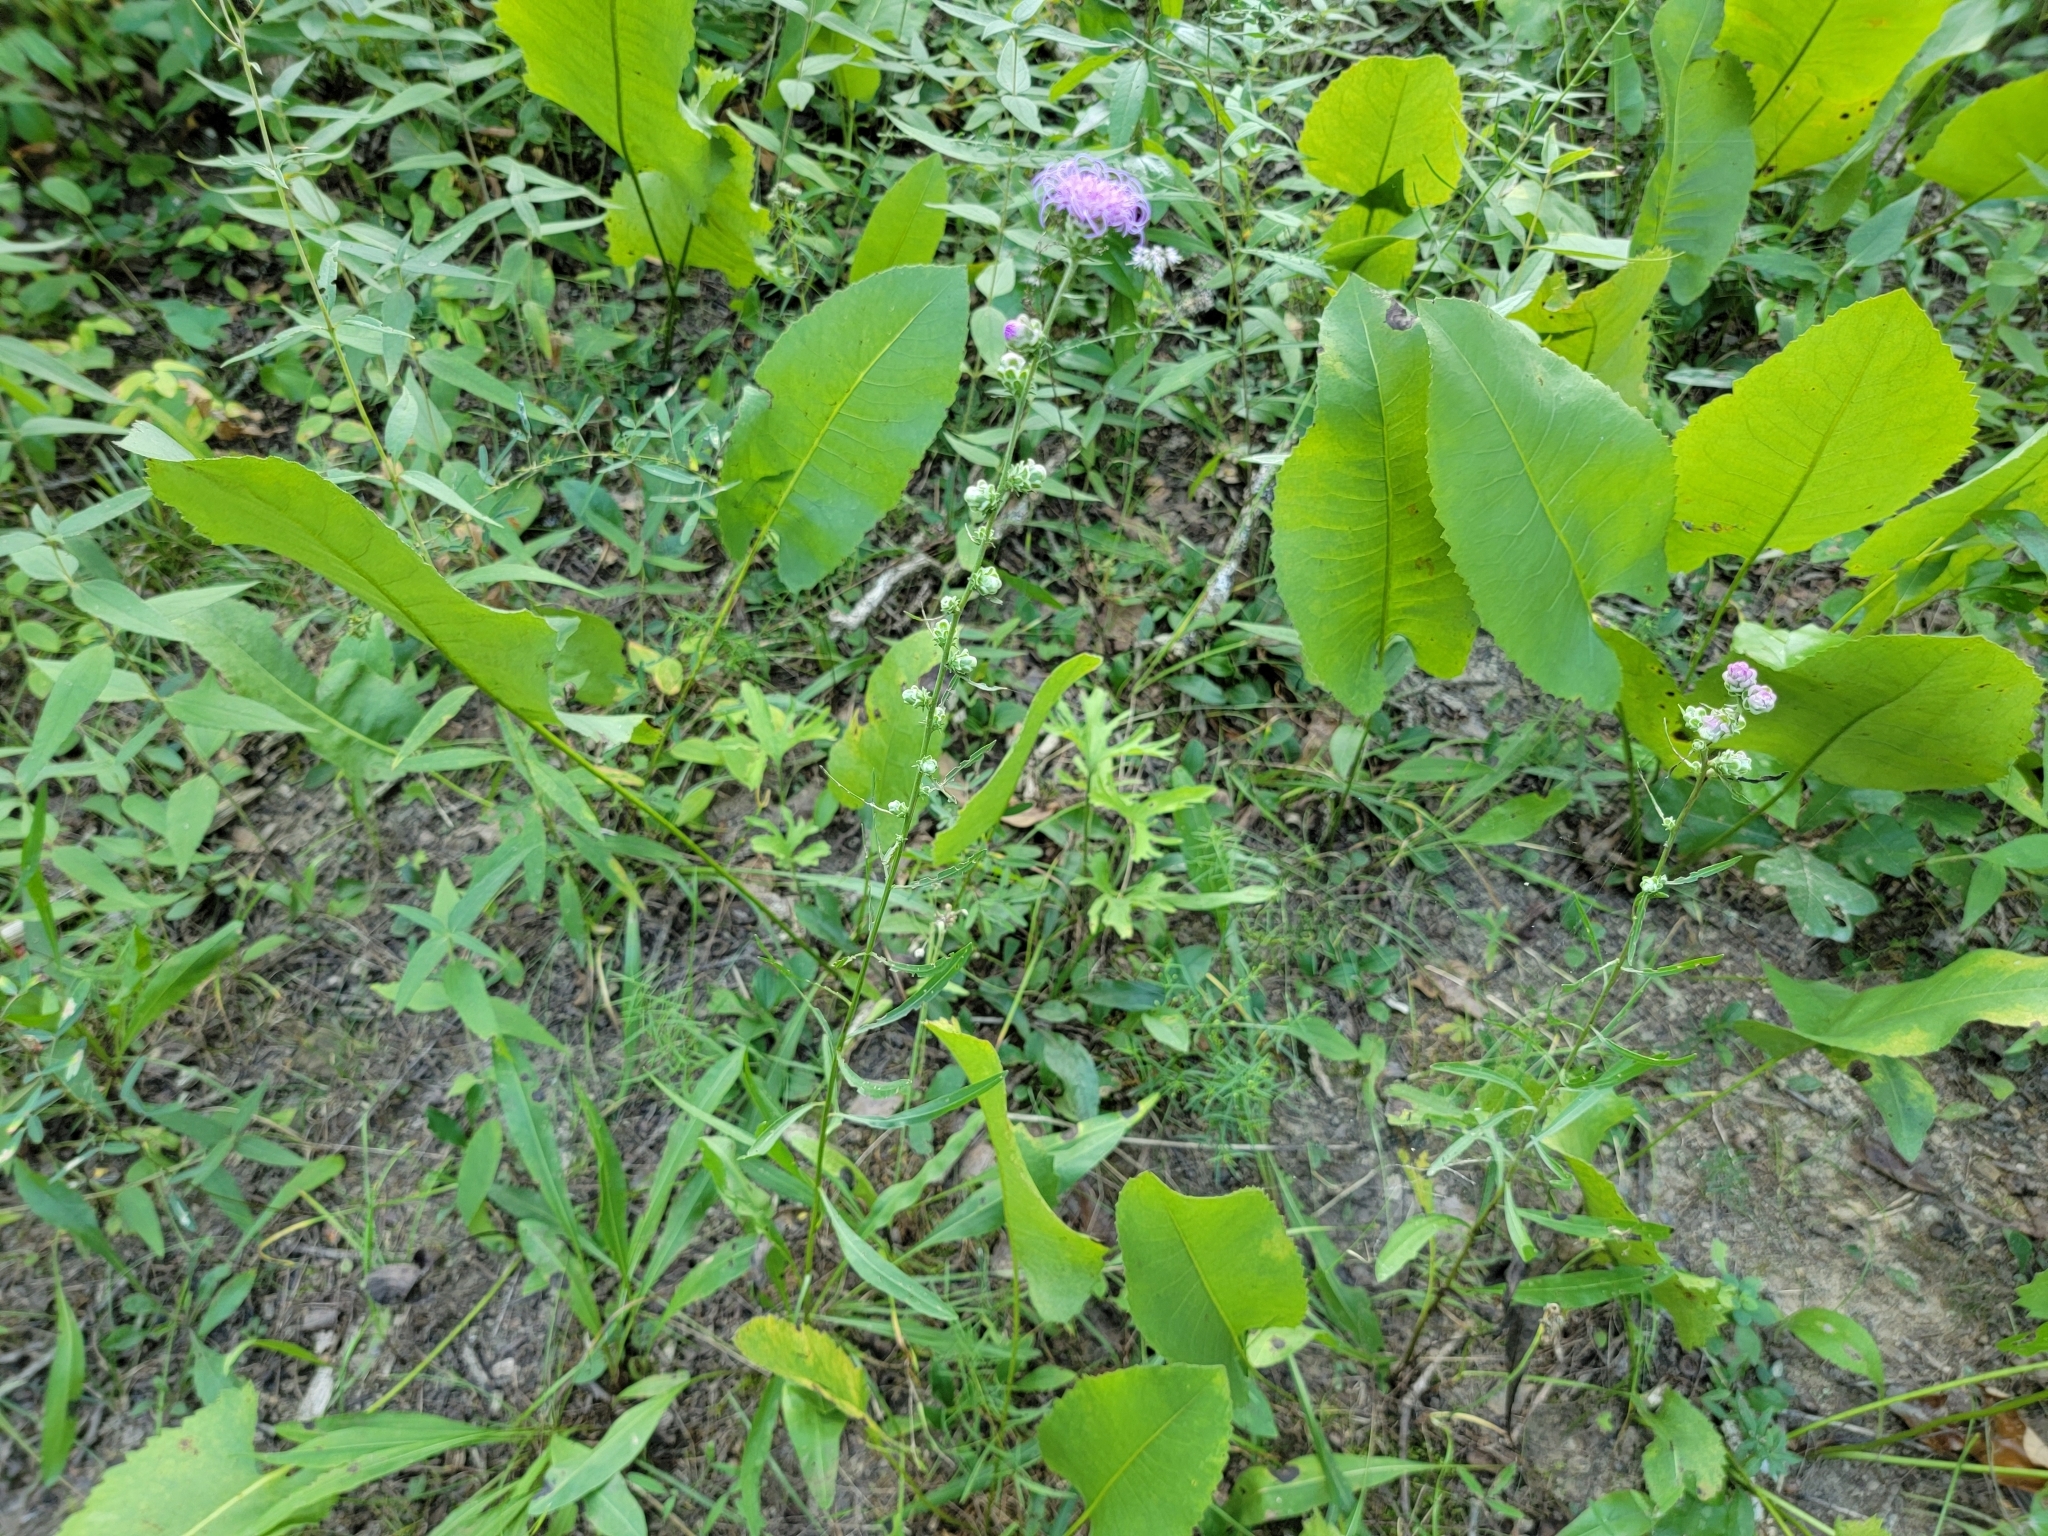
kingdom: Plantae
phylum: Tracheophyta
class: Magnoliopsida
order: Asterales
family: Asteraceae
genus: Liatris
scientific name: Liatris aspera
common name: Lacerate blazing-star
